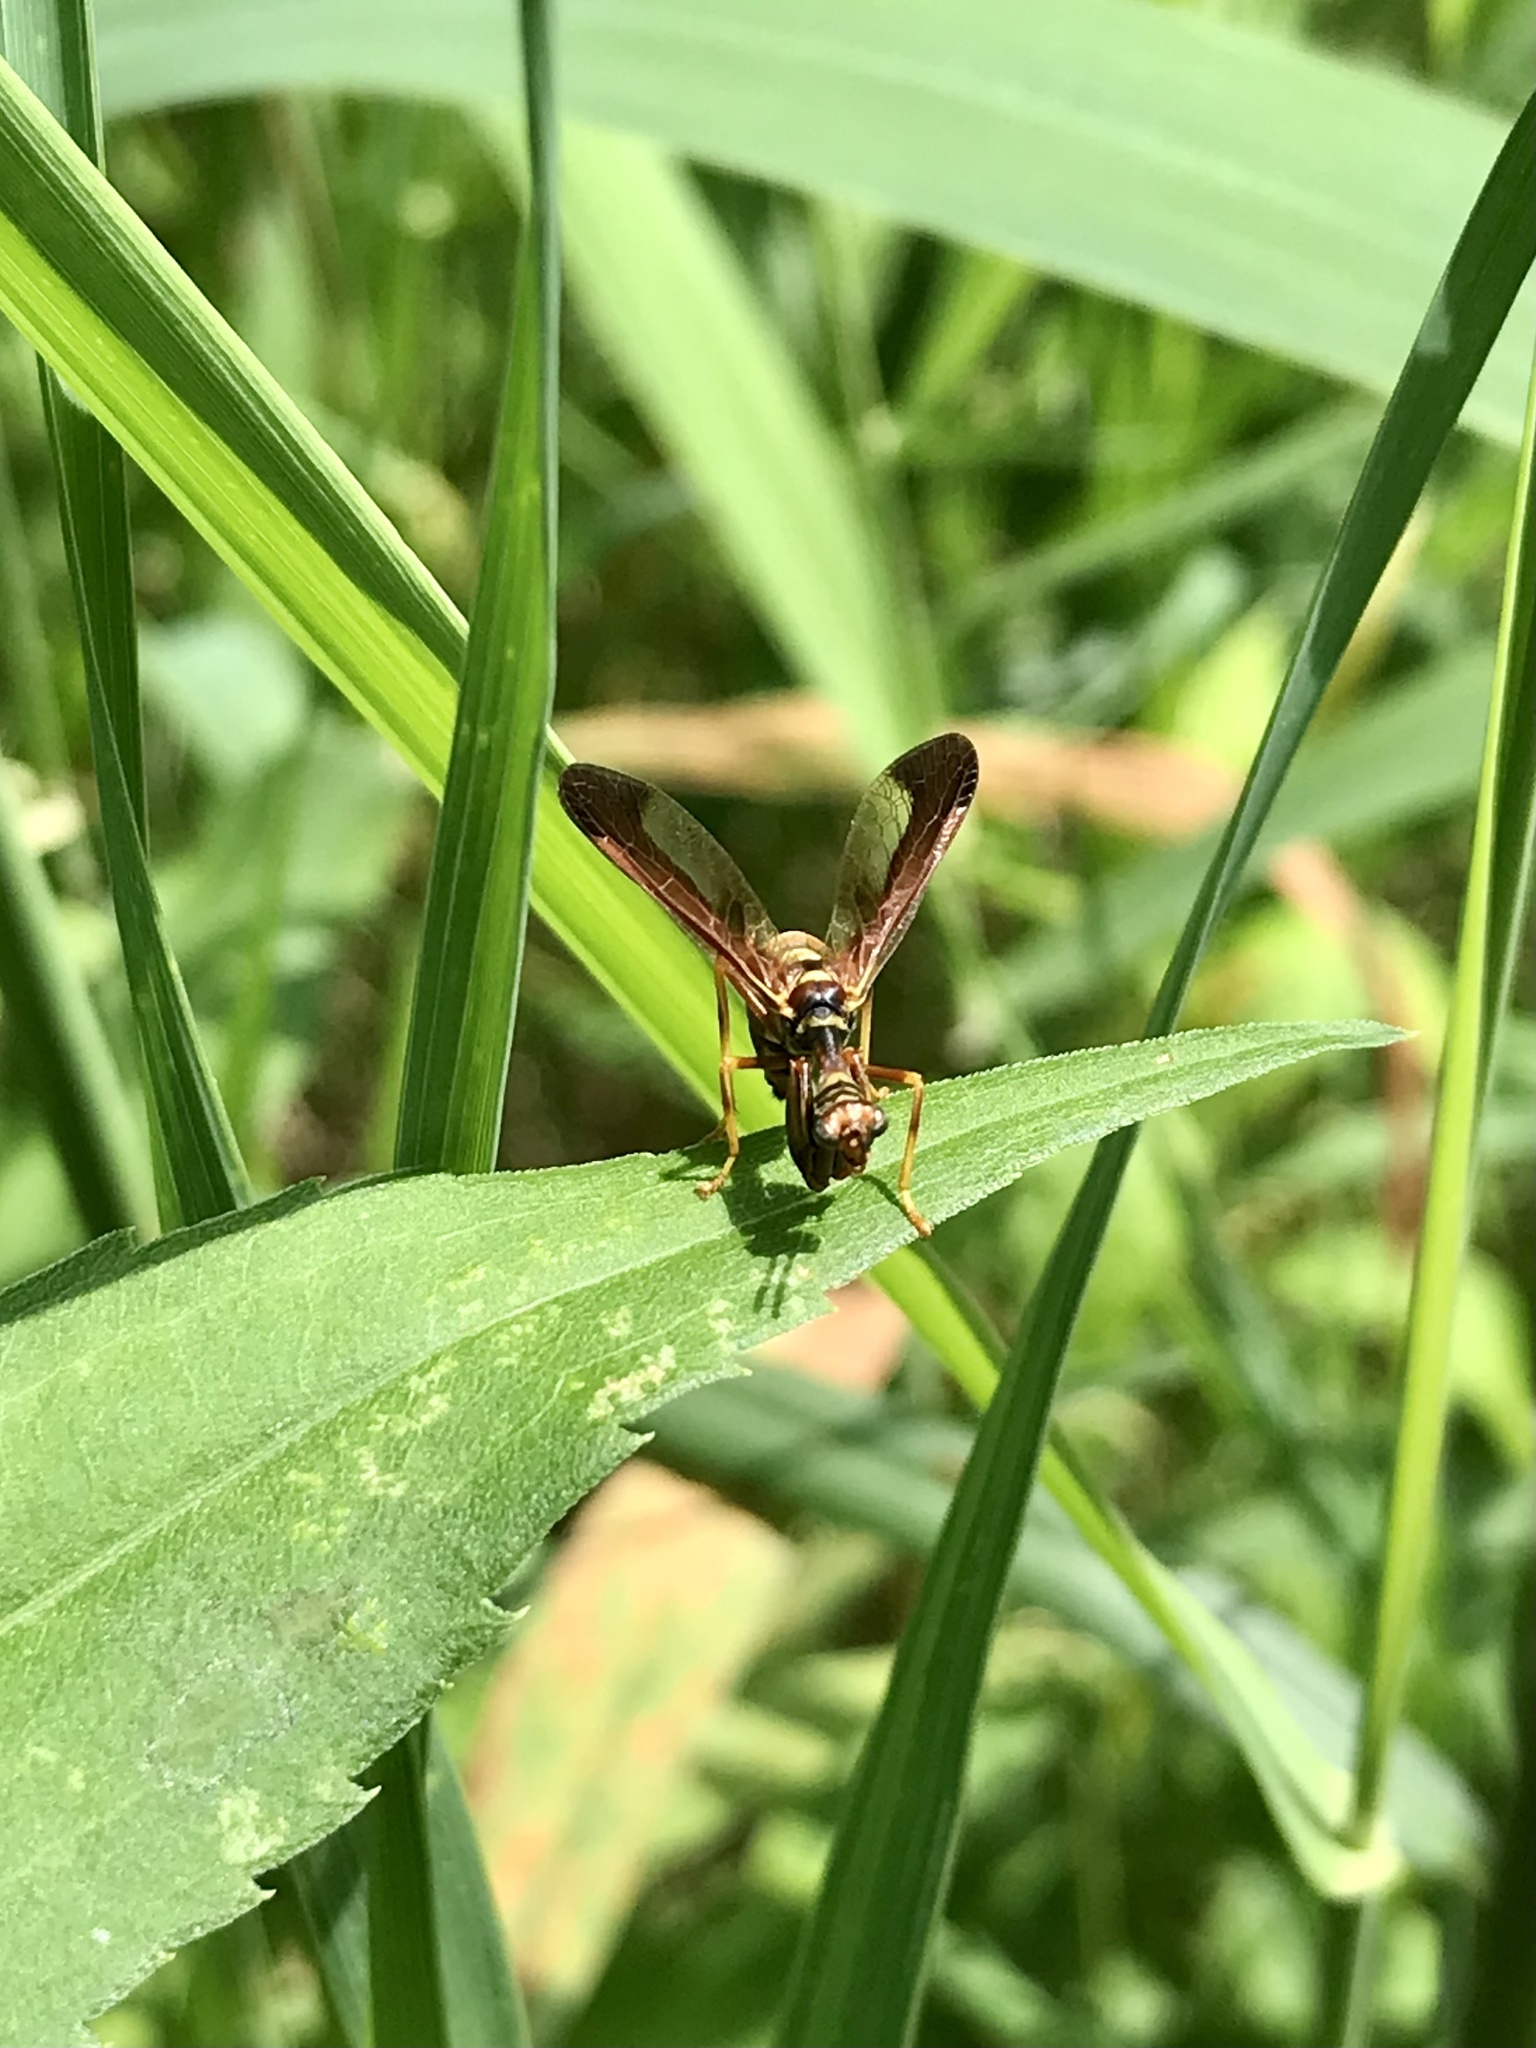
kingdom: Animalia
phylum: Arthropoda
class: Insecta
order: Neuroptera
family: Mantispidae
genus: Climaciella
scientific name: Climaciella brunnea
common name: Brown wasp mantidfly
